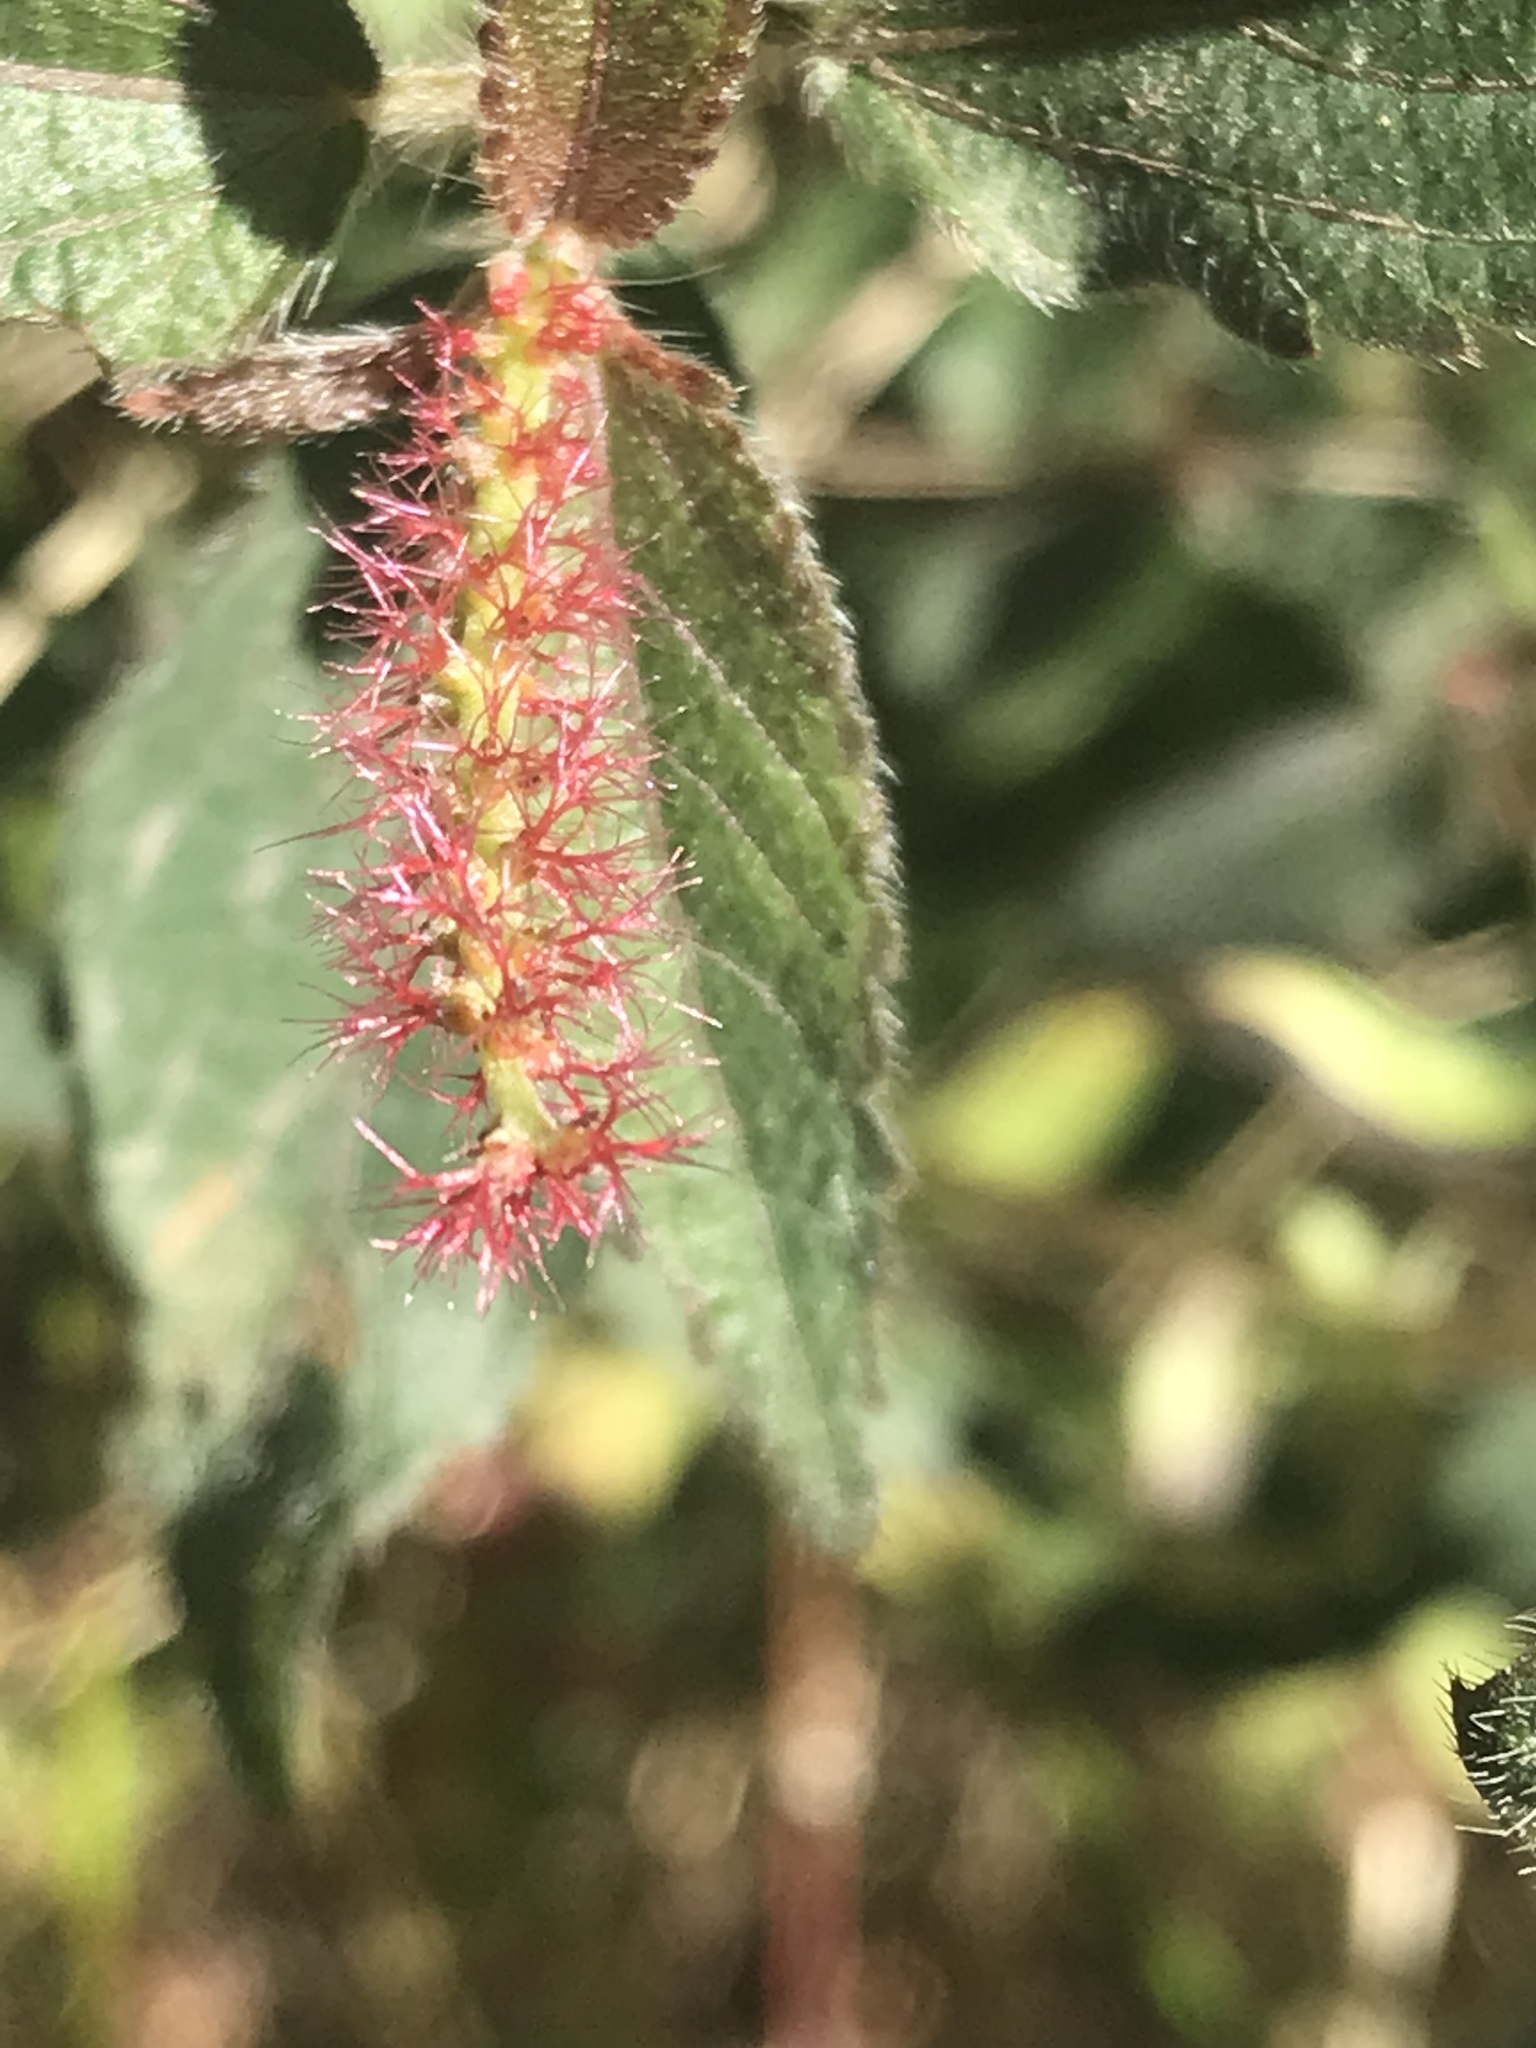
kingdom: Plantae
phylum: Tracheophyta
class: Magnoliopsida
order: Malpighiales
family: Euphorbiaceae
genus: Acalypha
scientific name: Acalypha phleoides
